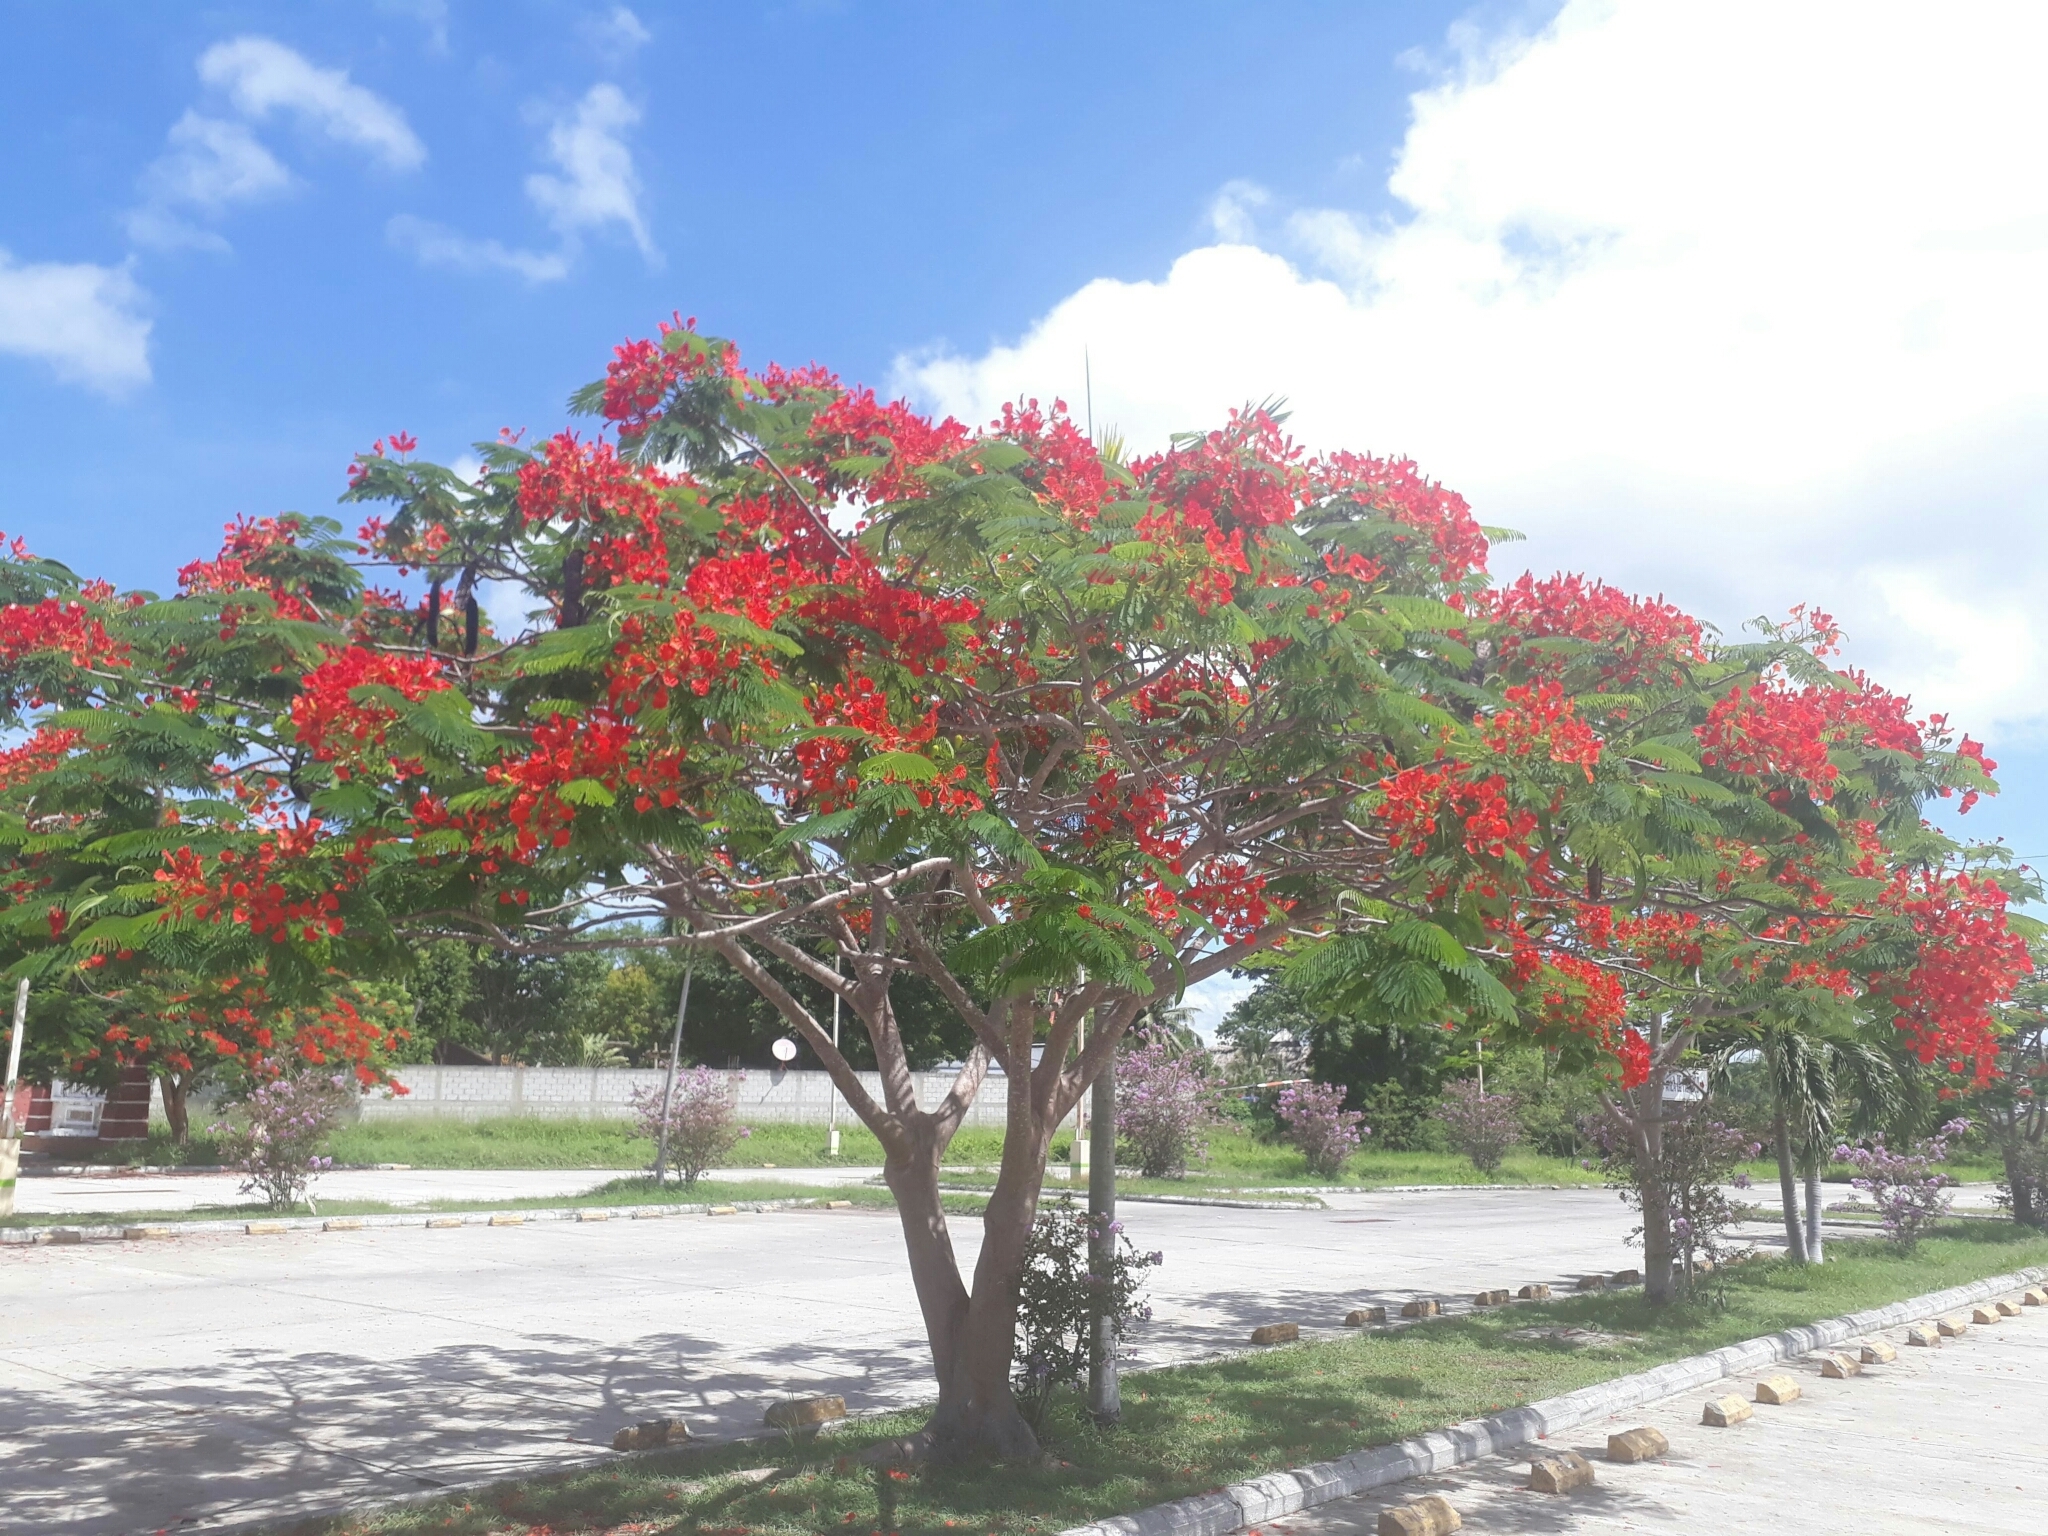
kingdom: Plantae
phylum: Tracheophyta
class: Magnoliopsida
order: Fabales
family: Fabaceae
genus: Delonix
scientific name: Delonix regia
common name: Royal poinciana
